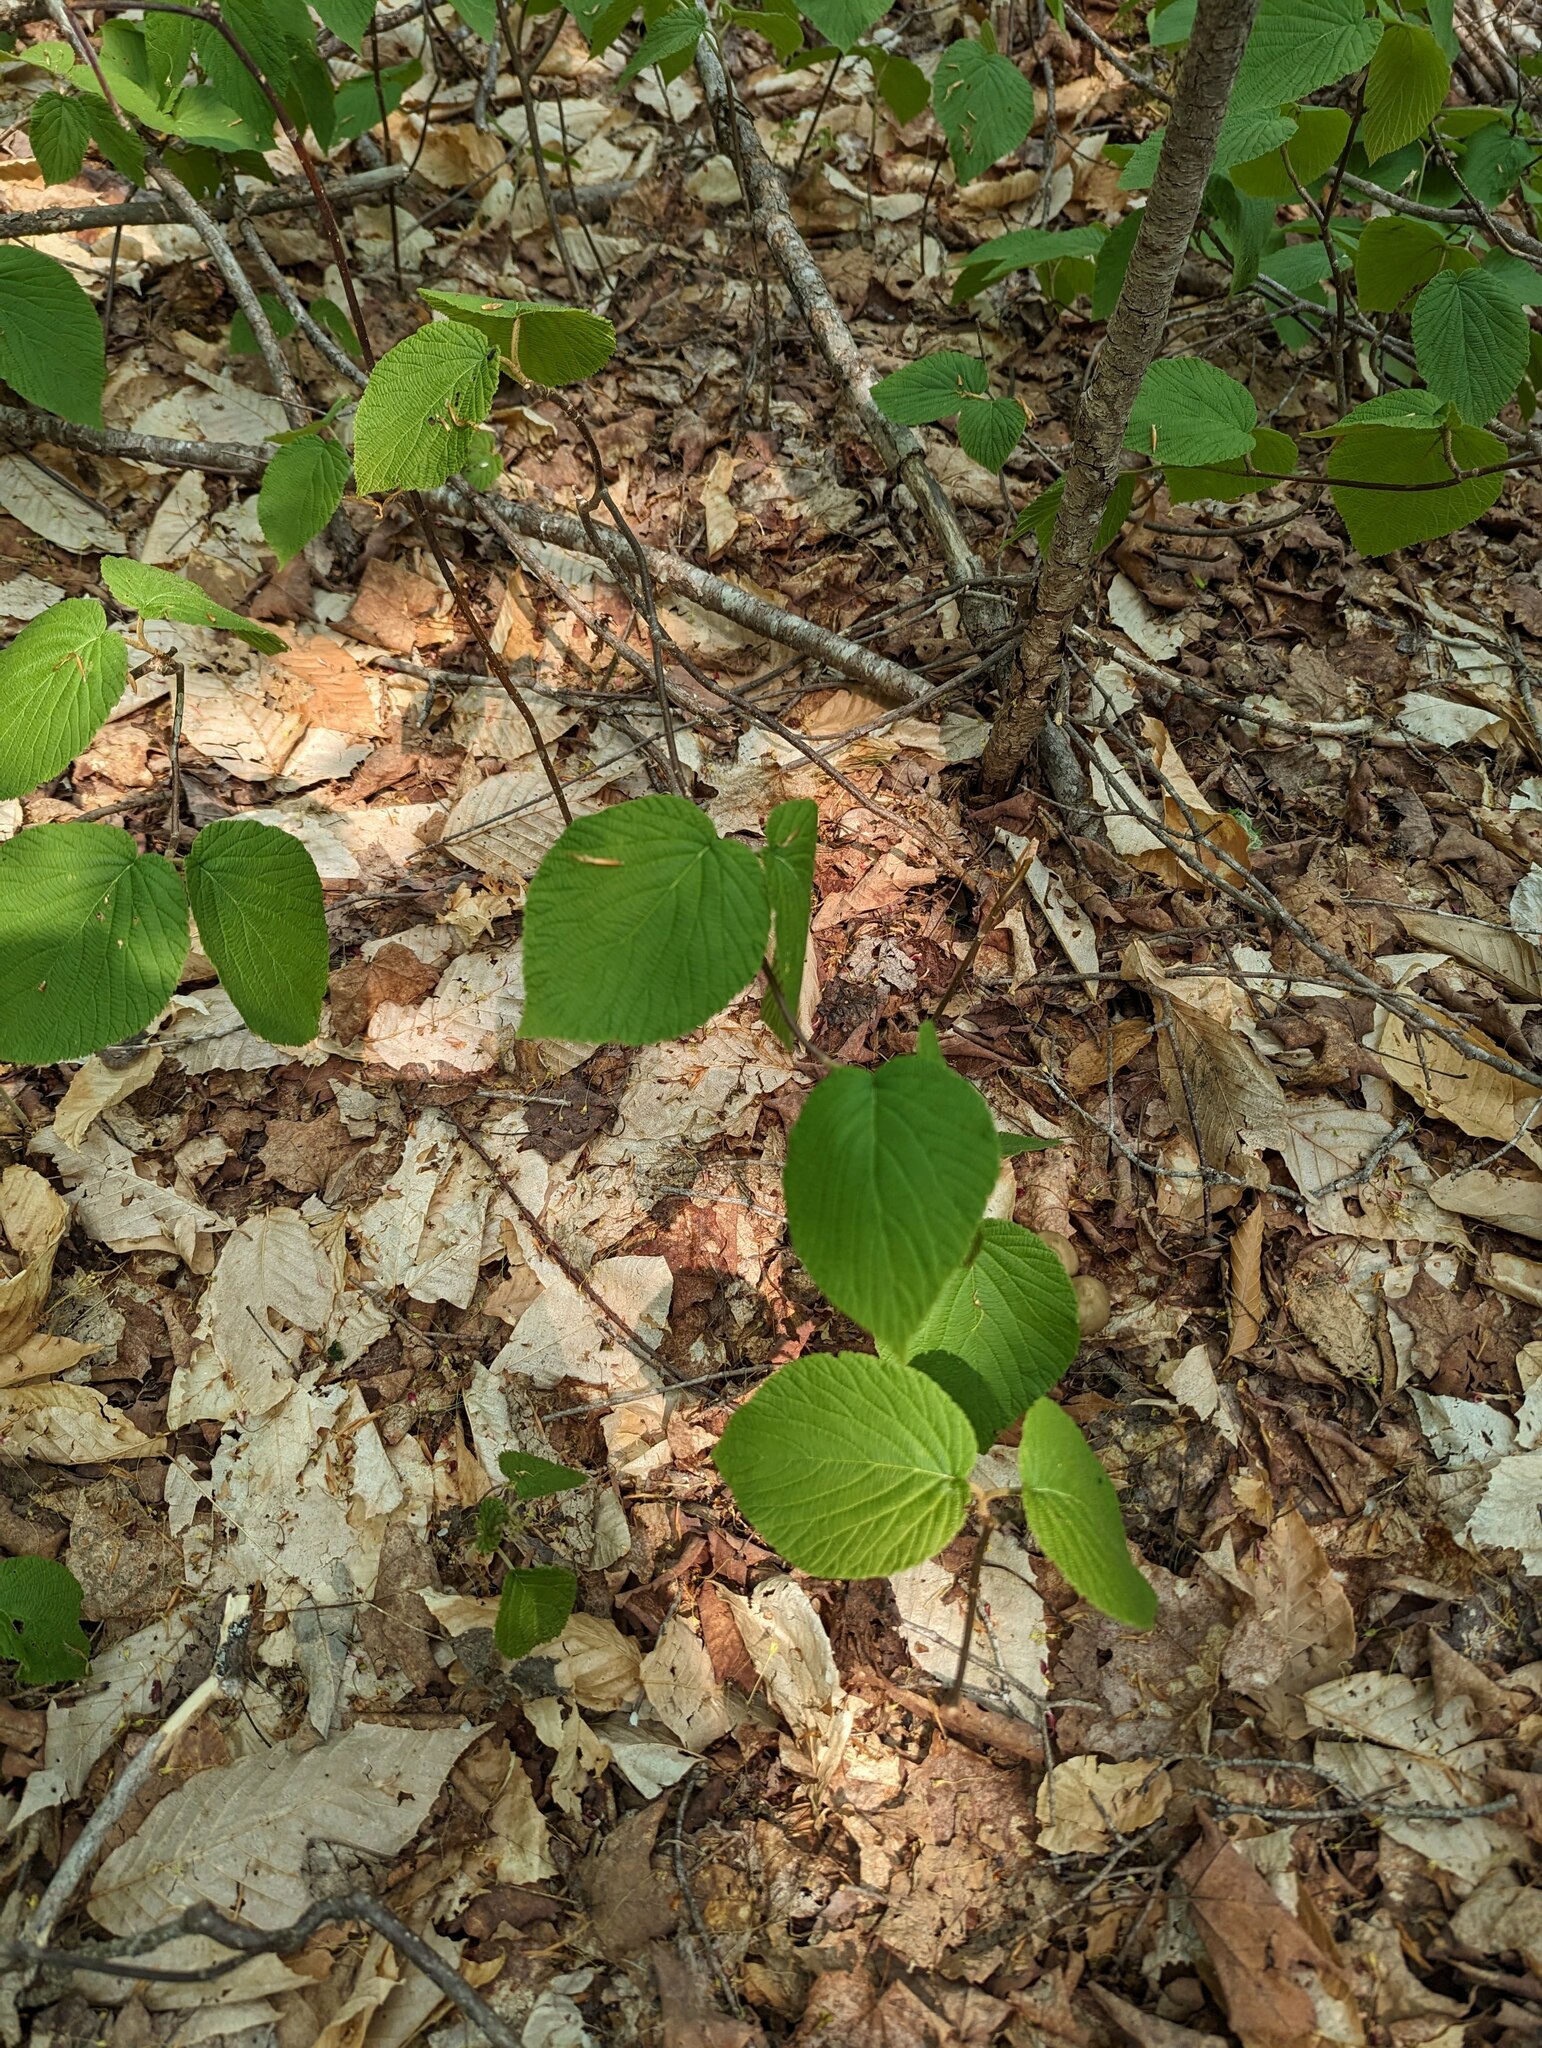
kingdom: Plantae
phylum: Tracheophyta
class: Magnoliopsida
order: Dipsacales
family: Viburnaceae
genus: Viburnum
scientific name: Viburnum lantanoides
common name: Hobblebush
